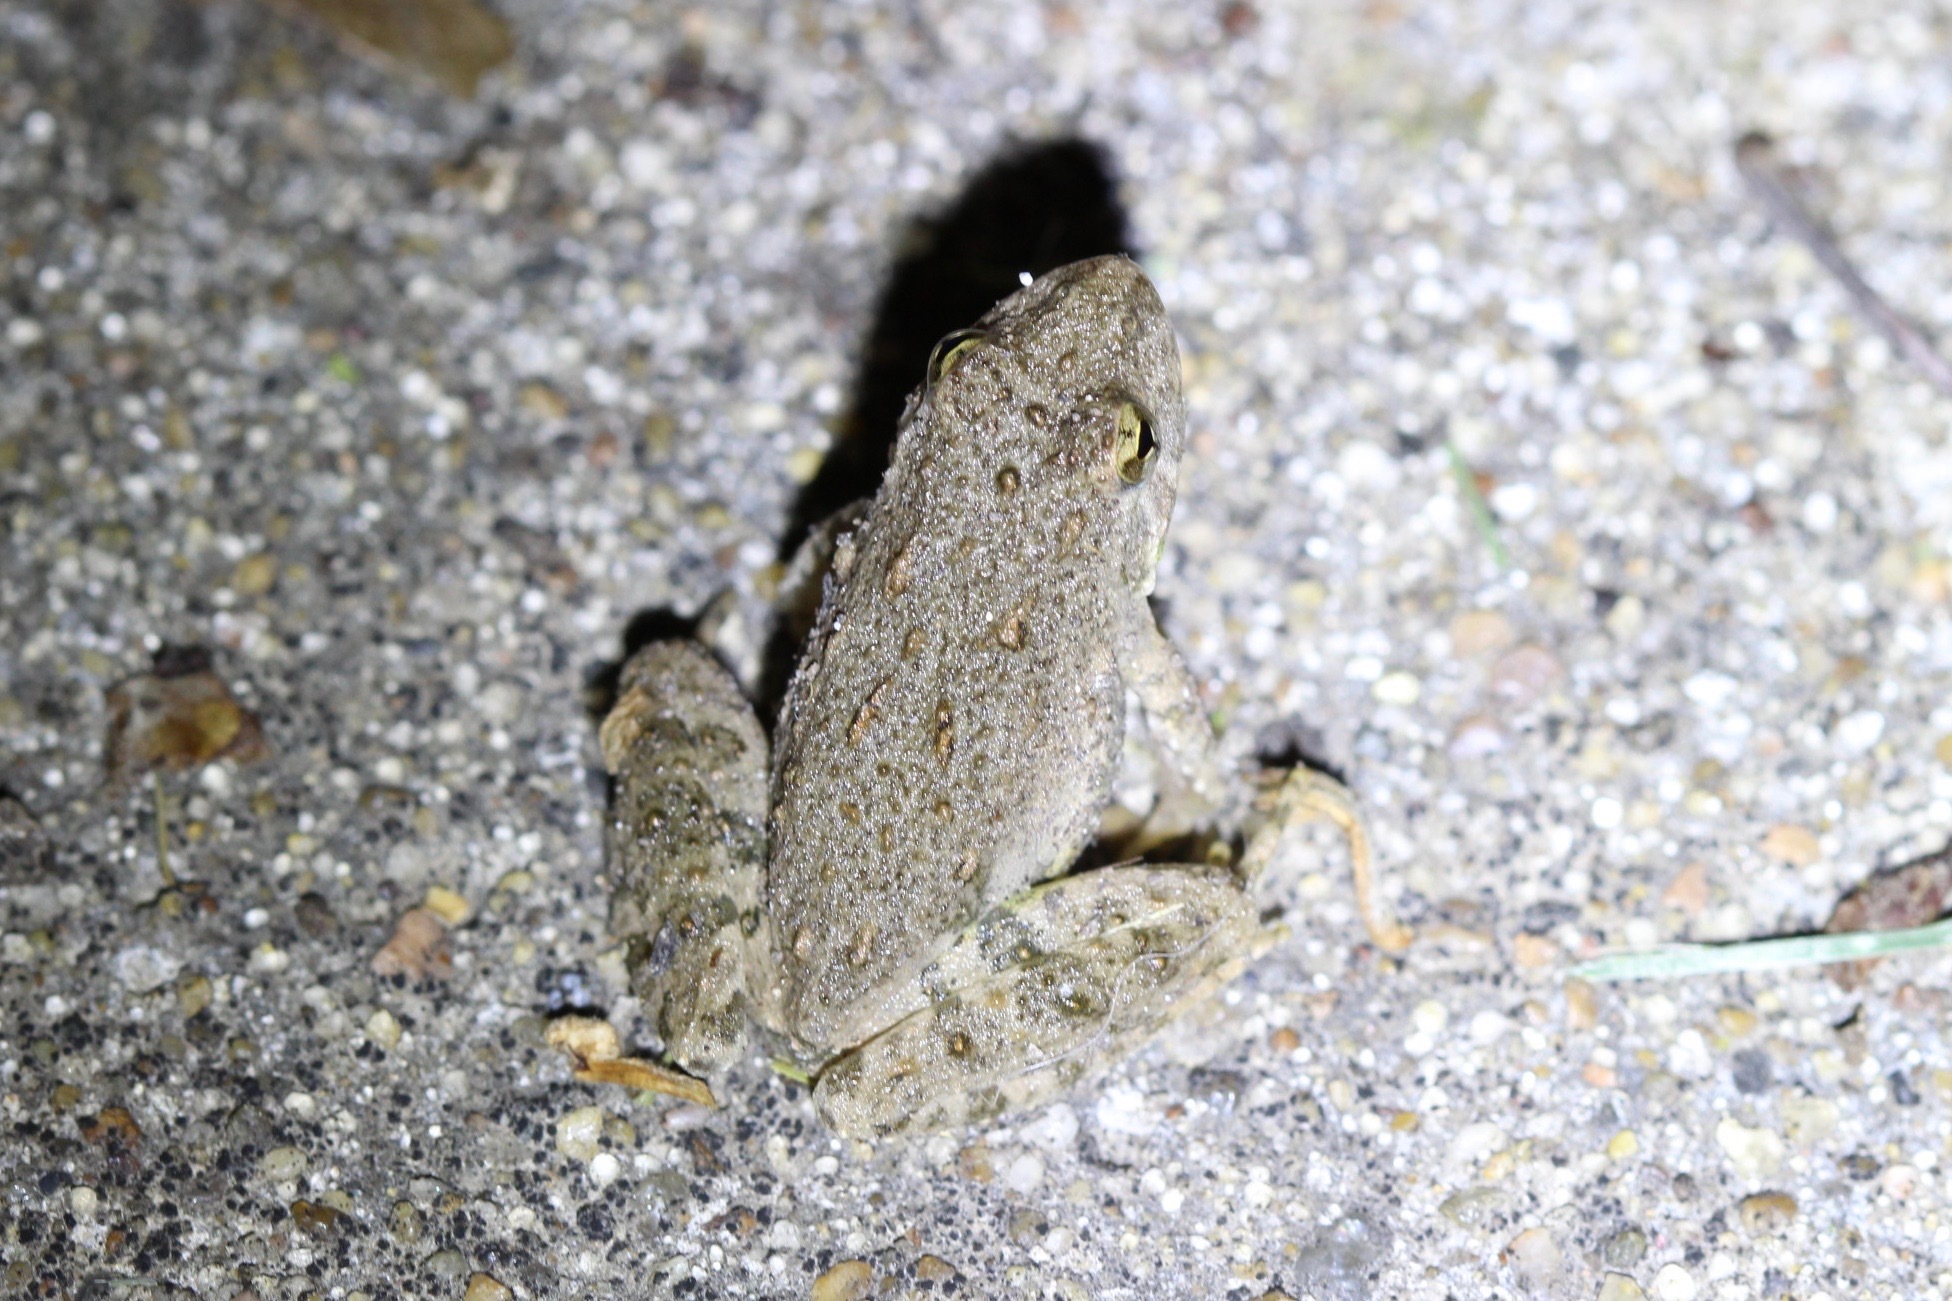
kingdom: Animalia
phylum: Chordata
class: Amphibia
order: Anura
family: Hylidae
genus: Acris
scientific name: Acris blanchardi
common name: Blanchard's cricket frog
